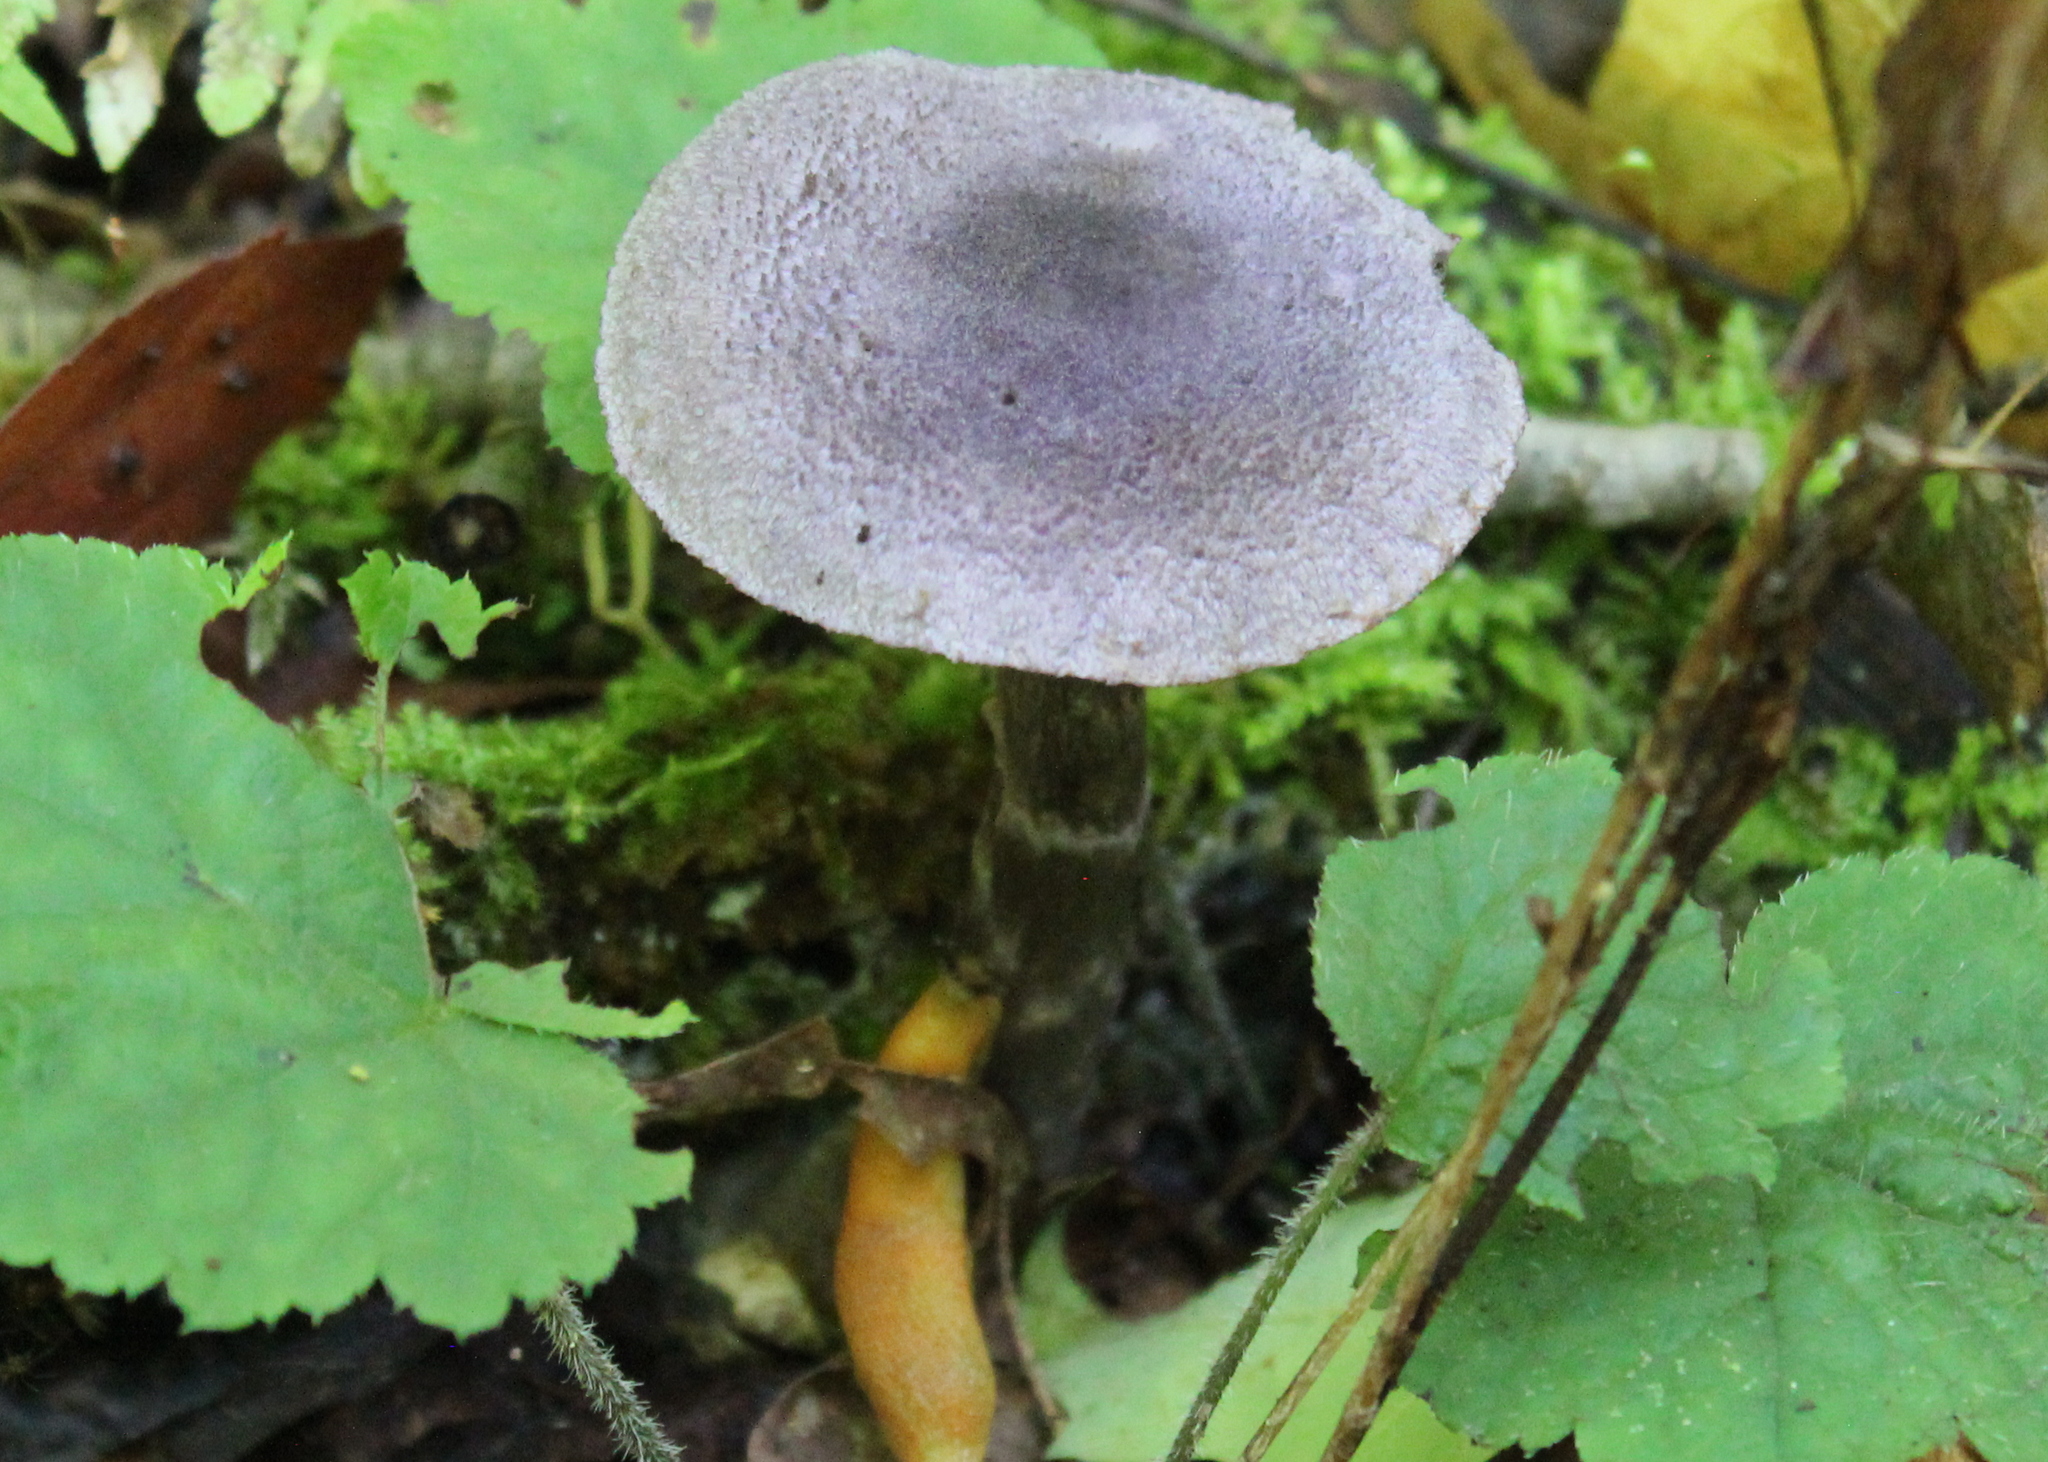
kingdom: Fungi
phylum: Basidiomycota
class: Agaricomycetes
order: Agaricales
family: Cortinariaceae
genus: Cortinarius
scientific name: Cortinarius violaceus
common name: Violet webcap
